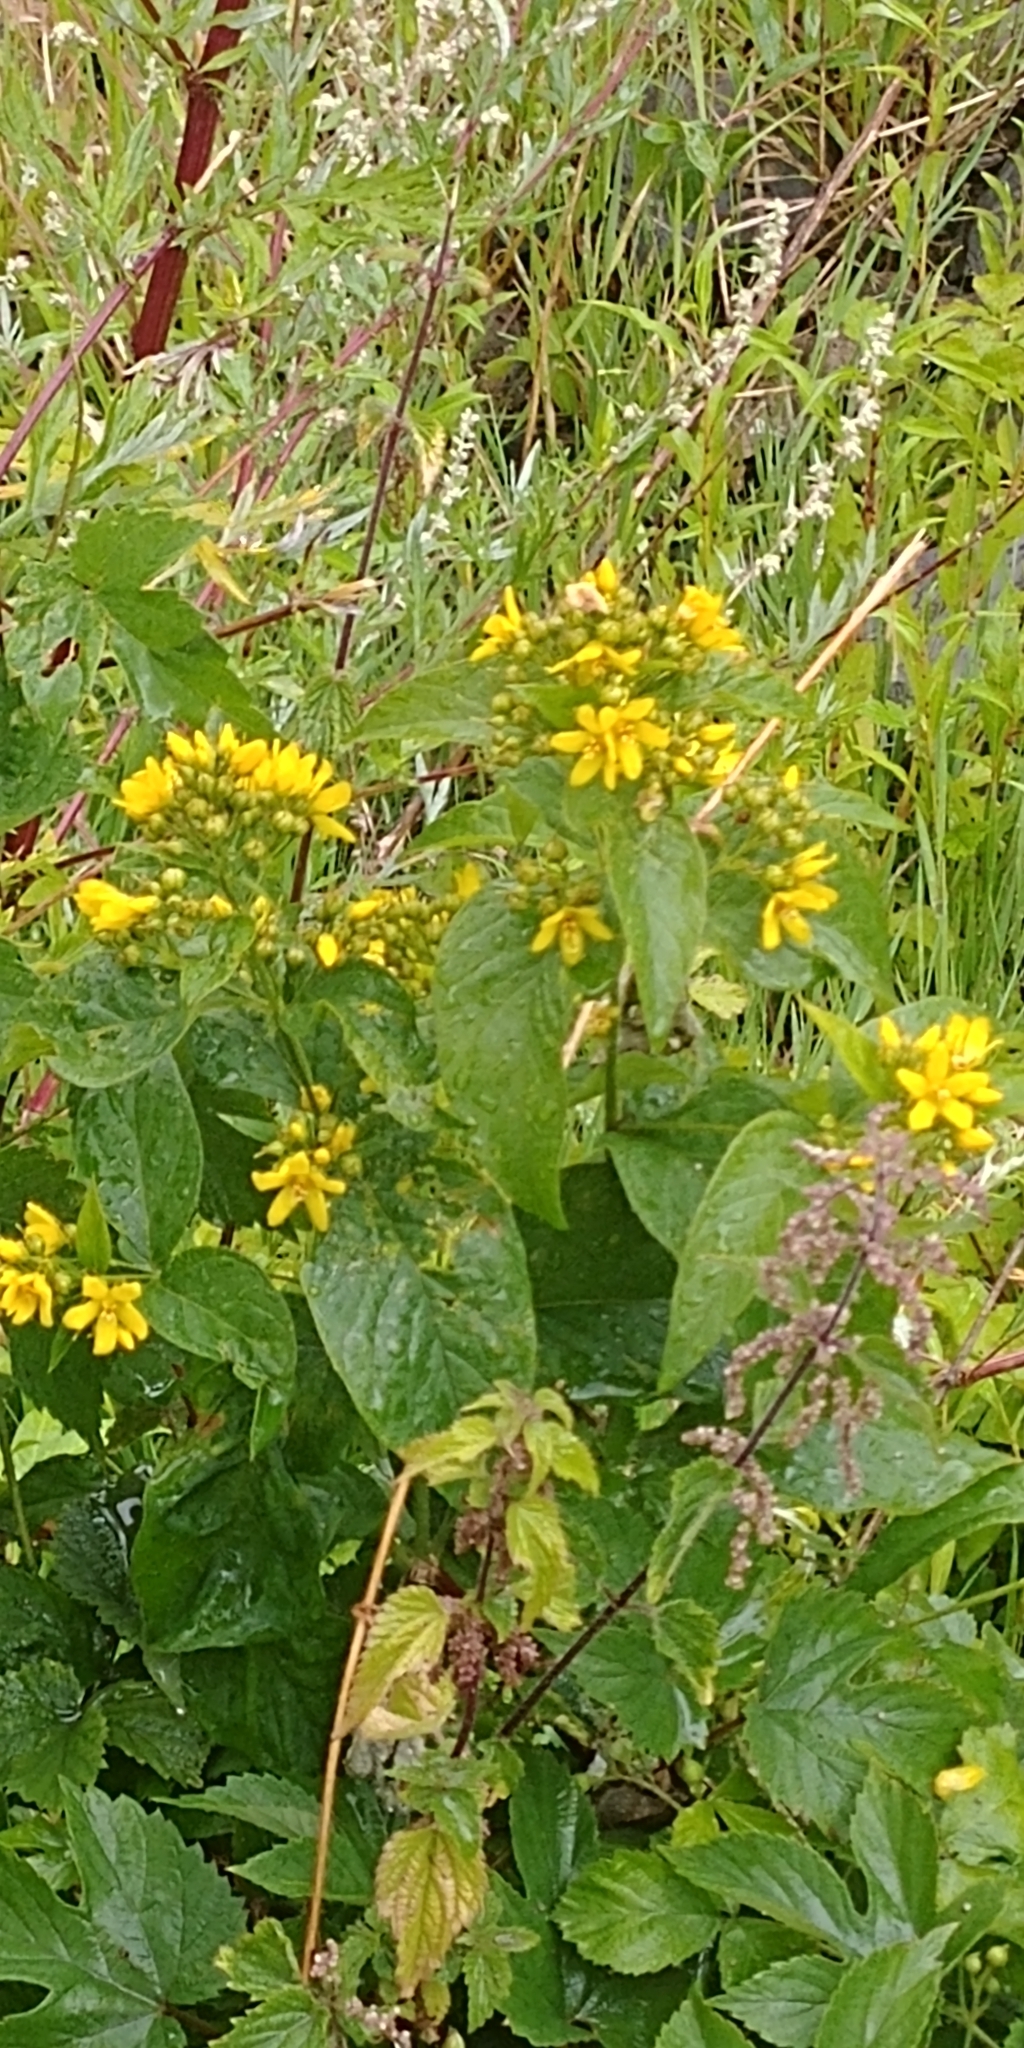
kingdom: Plantae
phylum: Tracheophyta
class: Magnoliopsida
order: Ericales
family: Primulaceae
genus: Lysimachia
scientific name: Lysimachia vulgaris
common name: Yellow loosestrife
